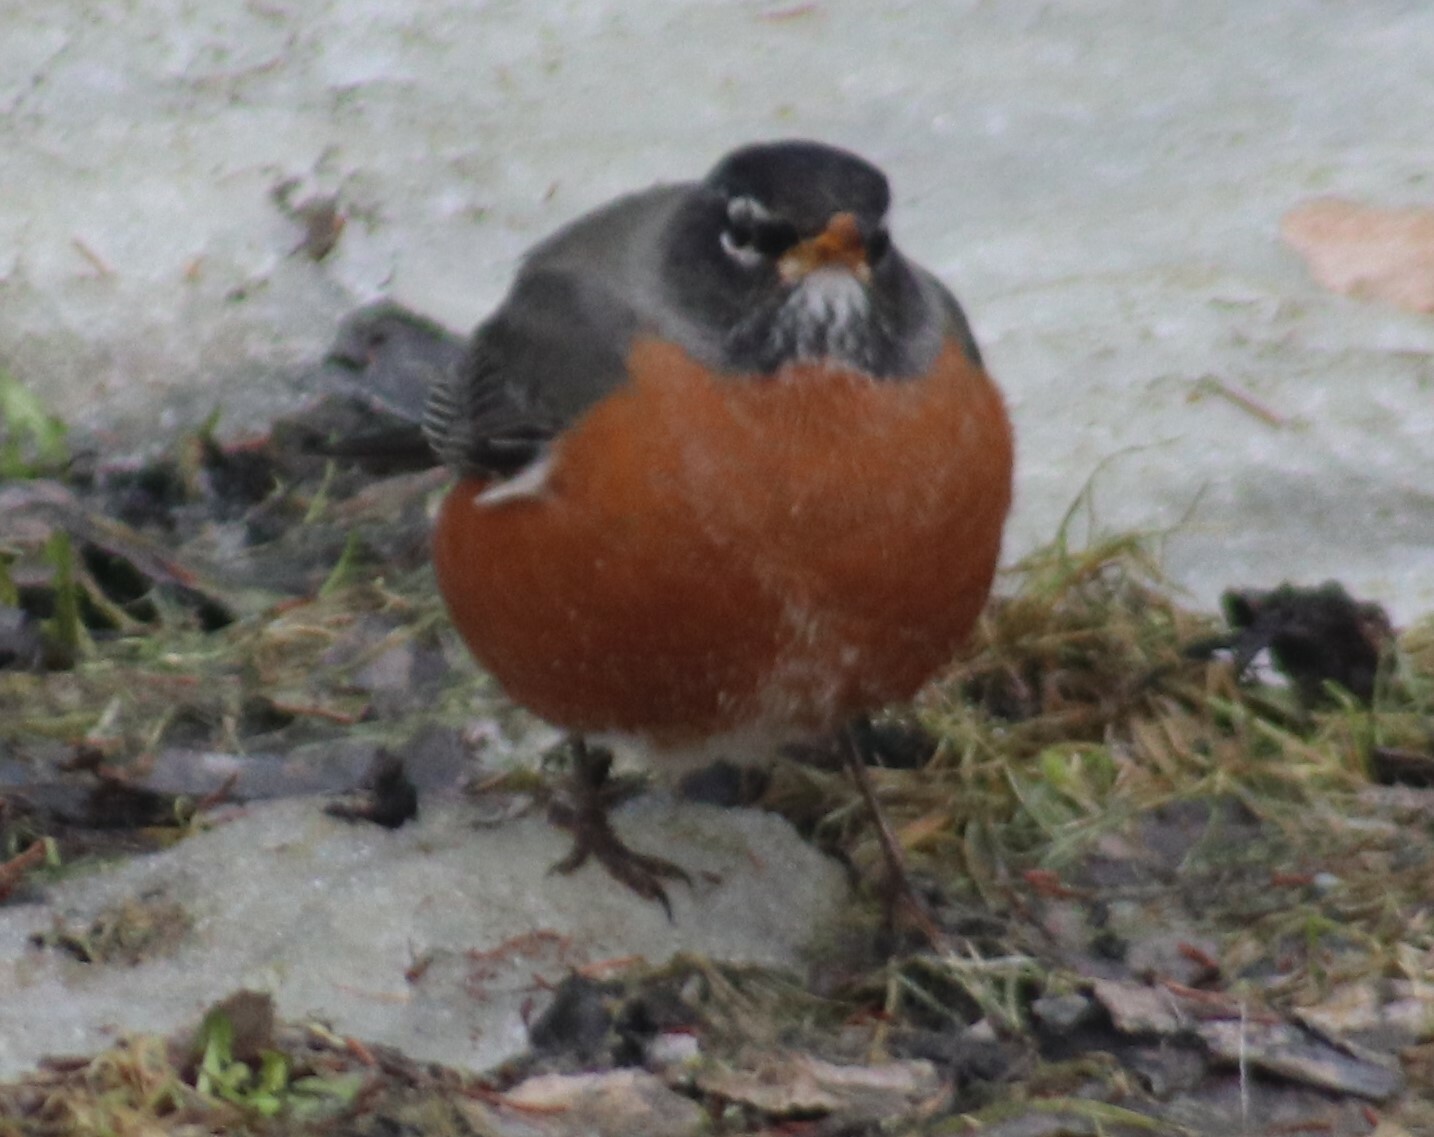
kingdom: Animalia
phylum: Chordata
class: Aves
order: Passeriformes
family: Turdidae
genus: Turdus
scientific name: Turdus migratorius
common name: American robin
